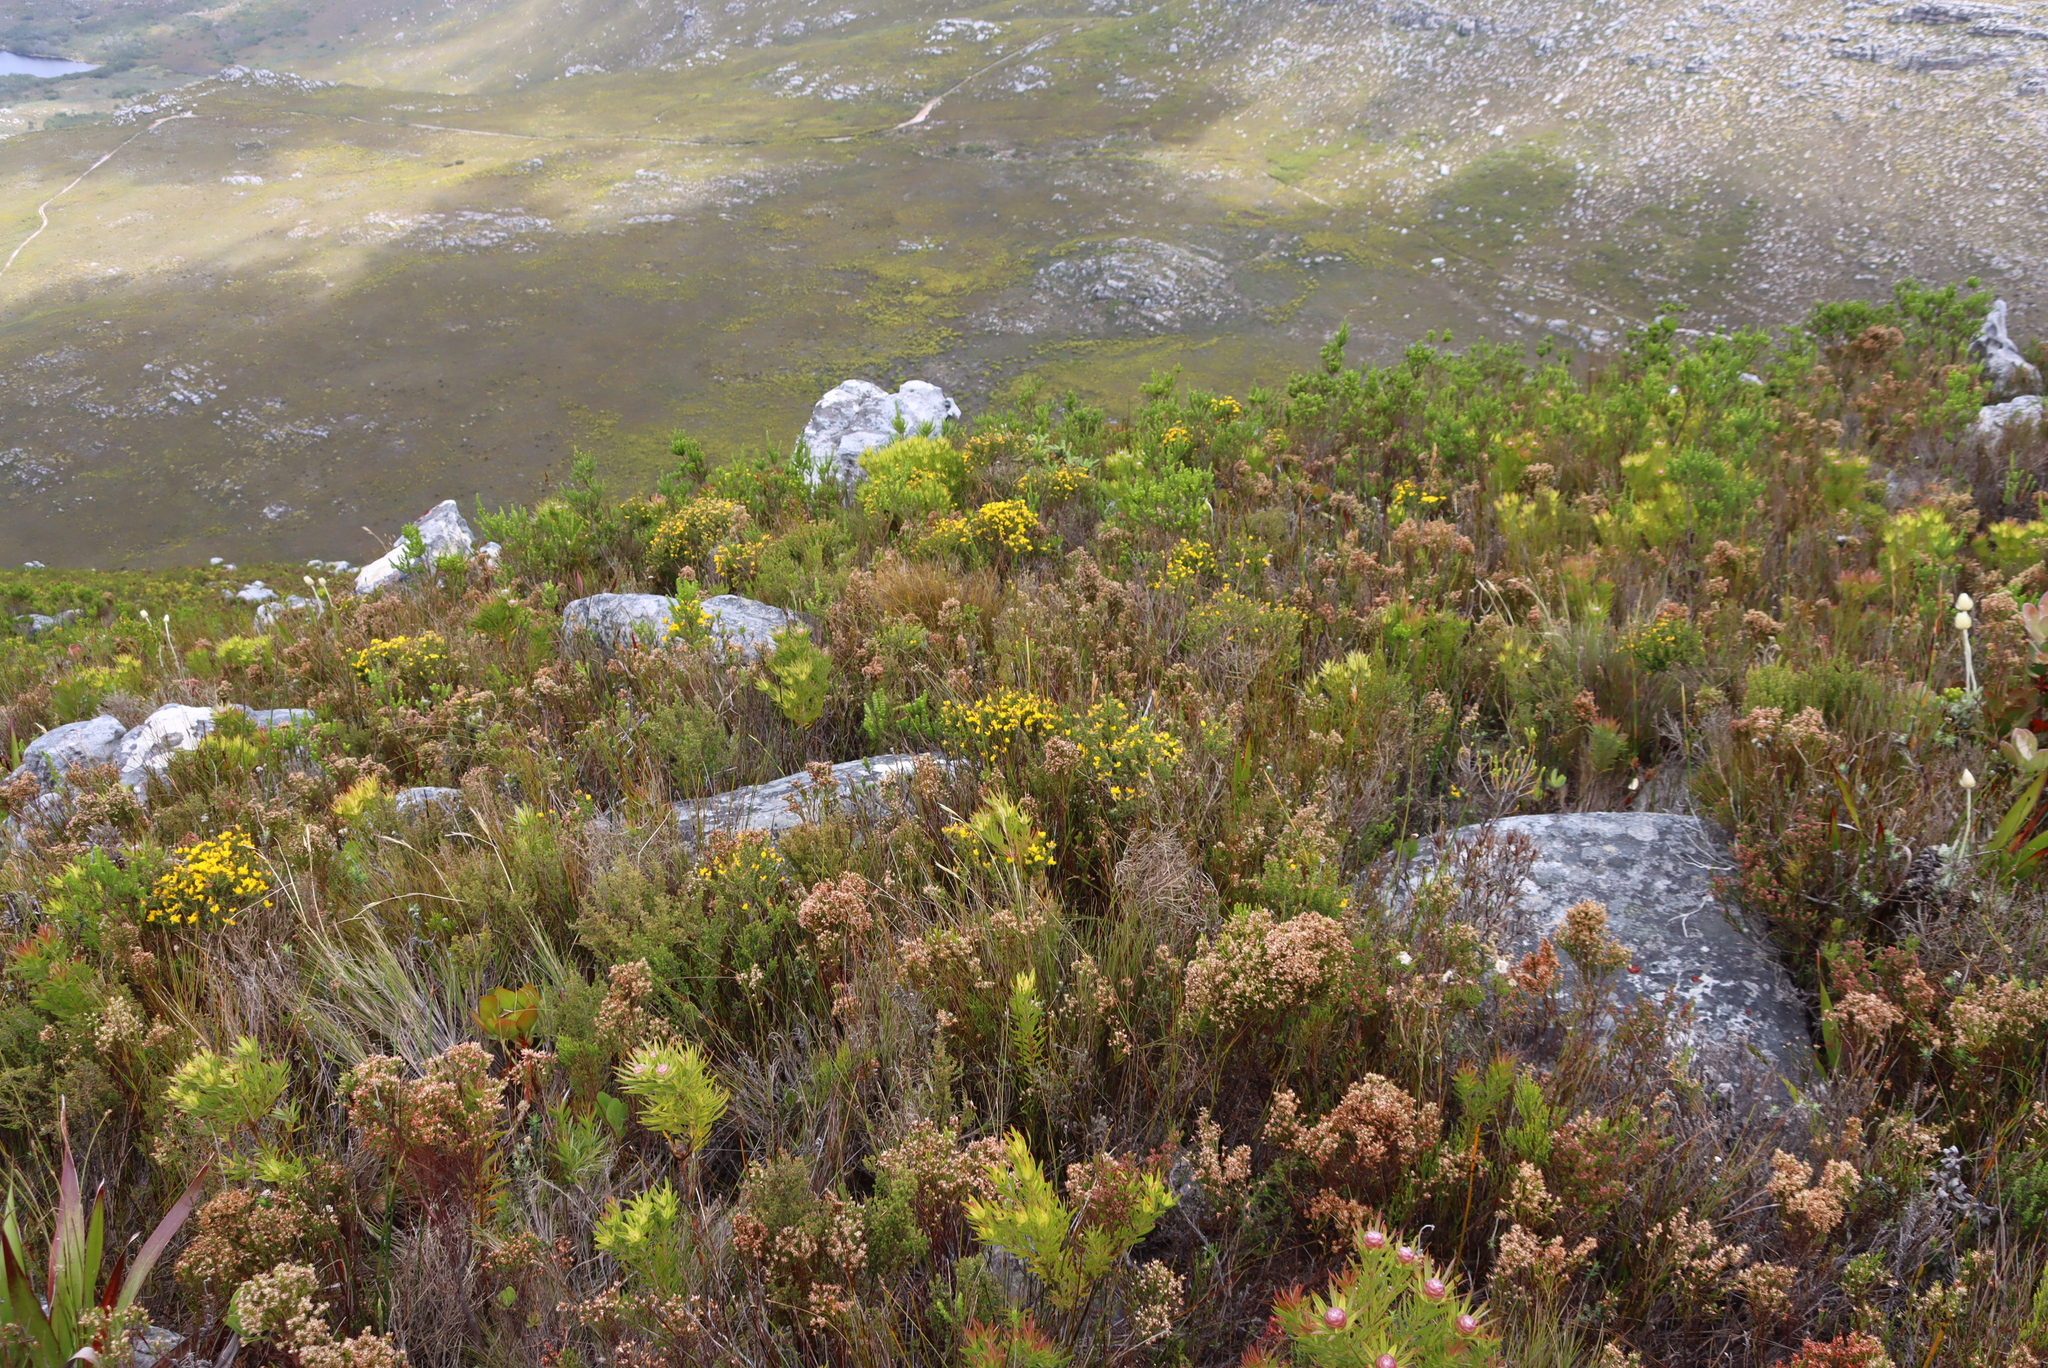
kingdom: Plantae
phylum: Tracheophyta
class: Magnoliopsida
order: Ericales
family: Ericaceae
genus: Erica
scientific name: Erica lutea
